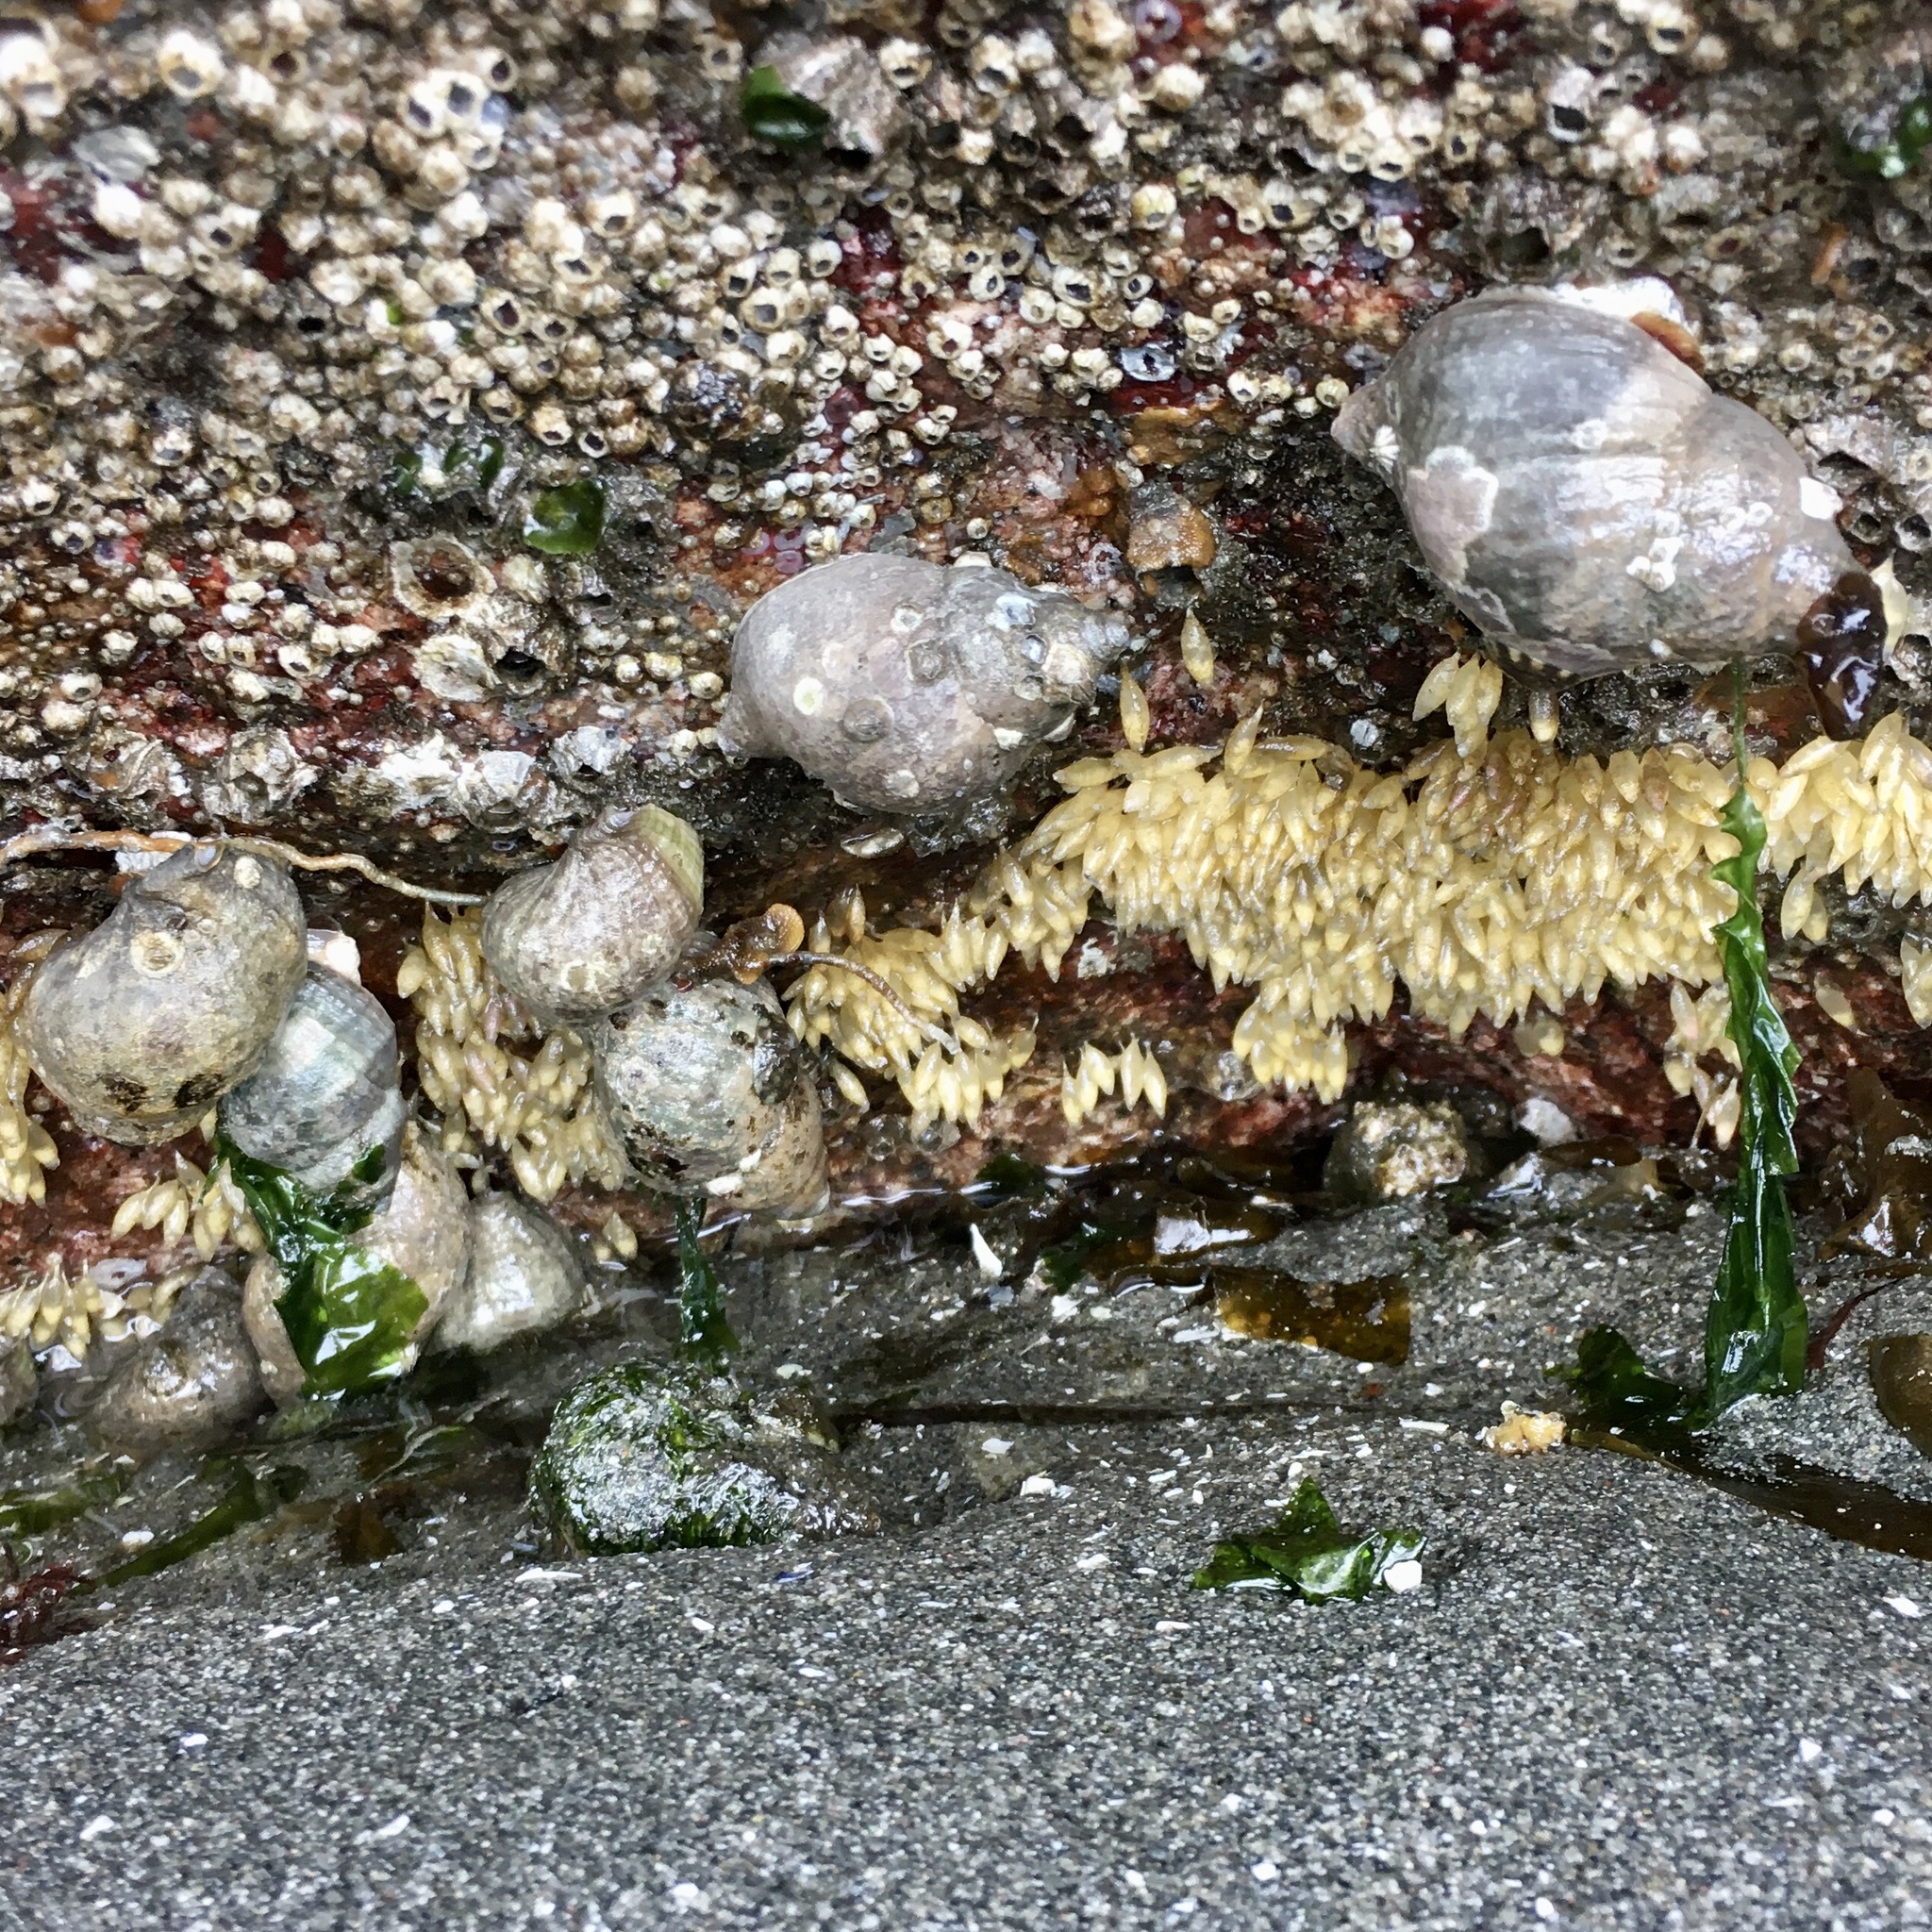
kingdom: Animalia
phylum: Mollusca
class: Gastropoda
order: Neogastropoda
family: Muricidae
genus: Nucella
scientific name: Nucella lamellosa
